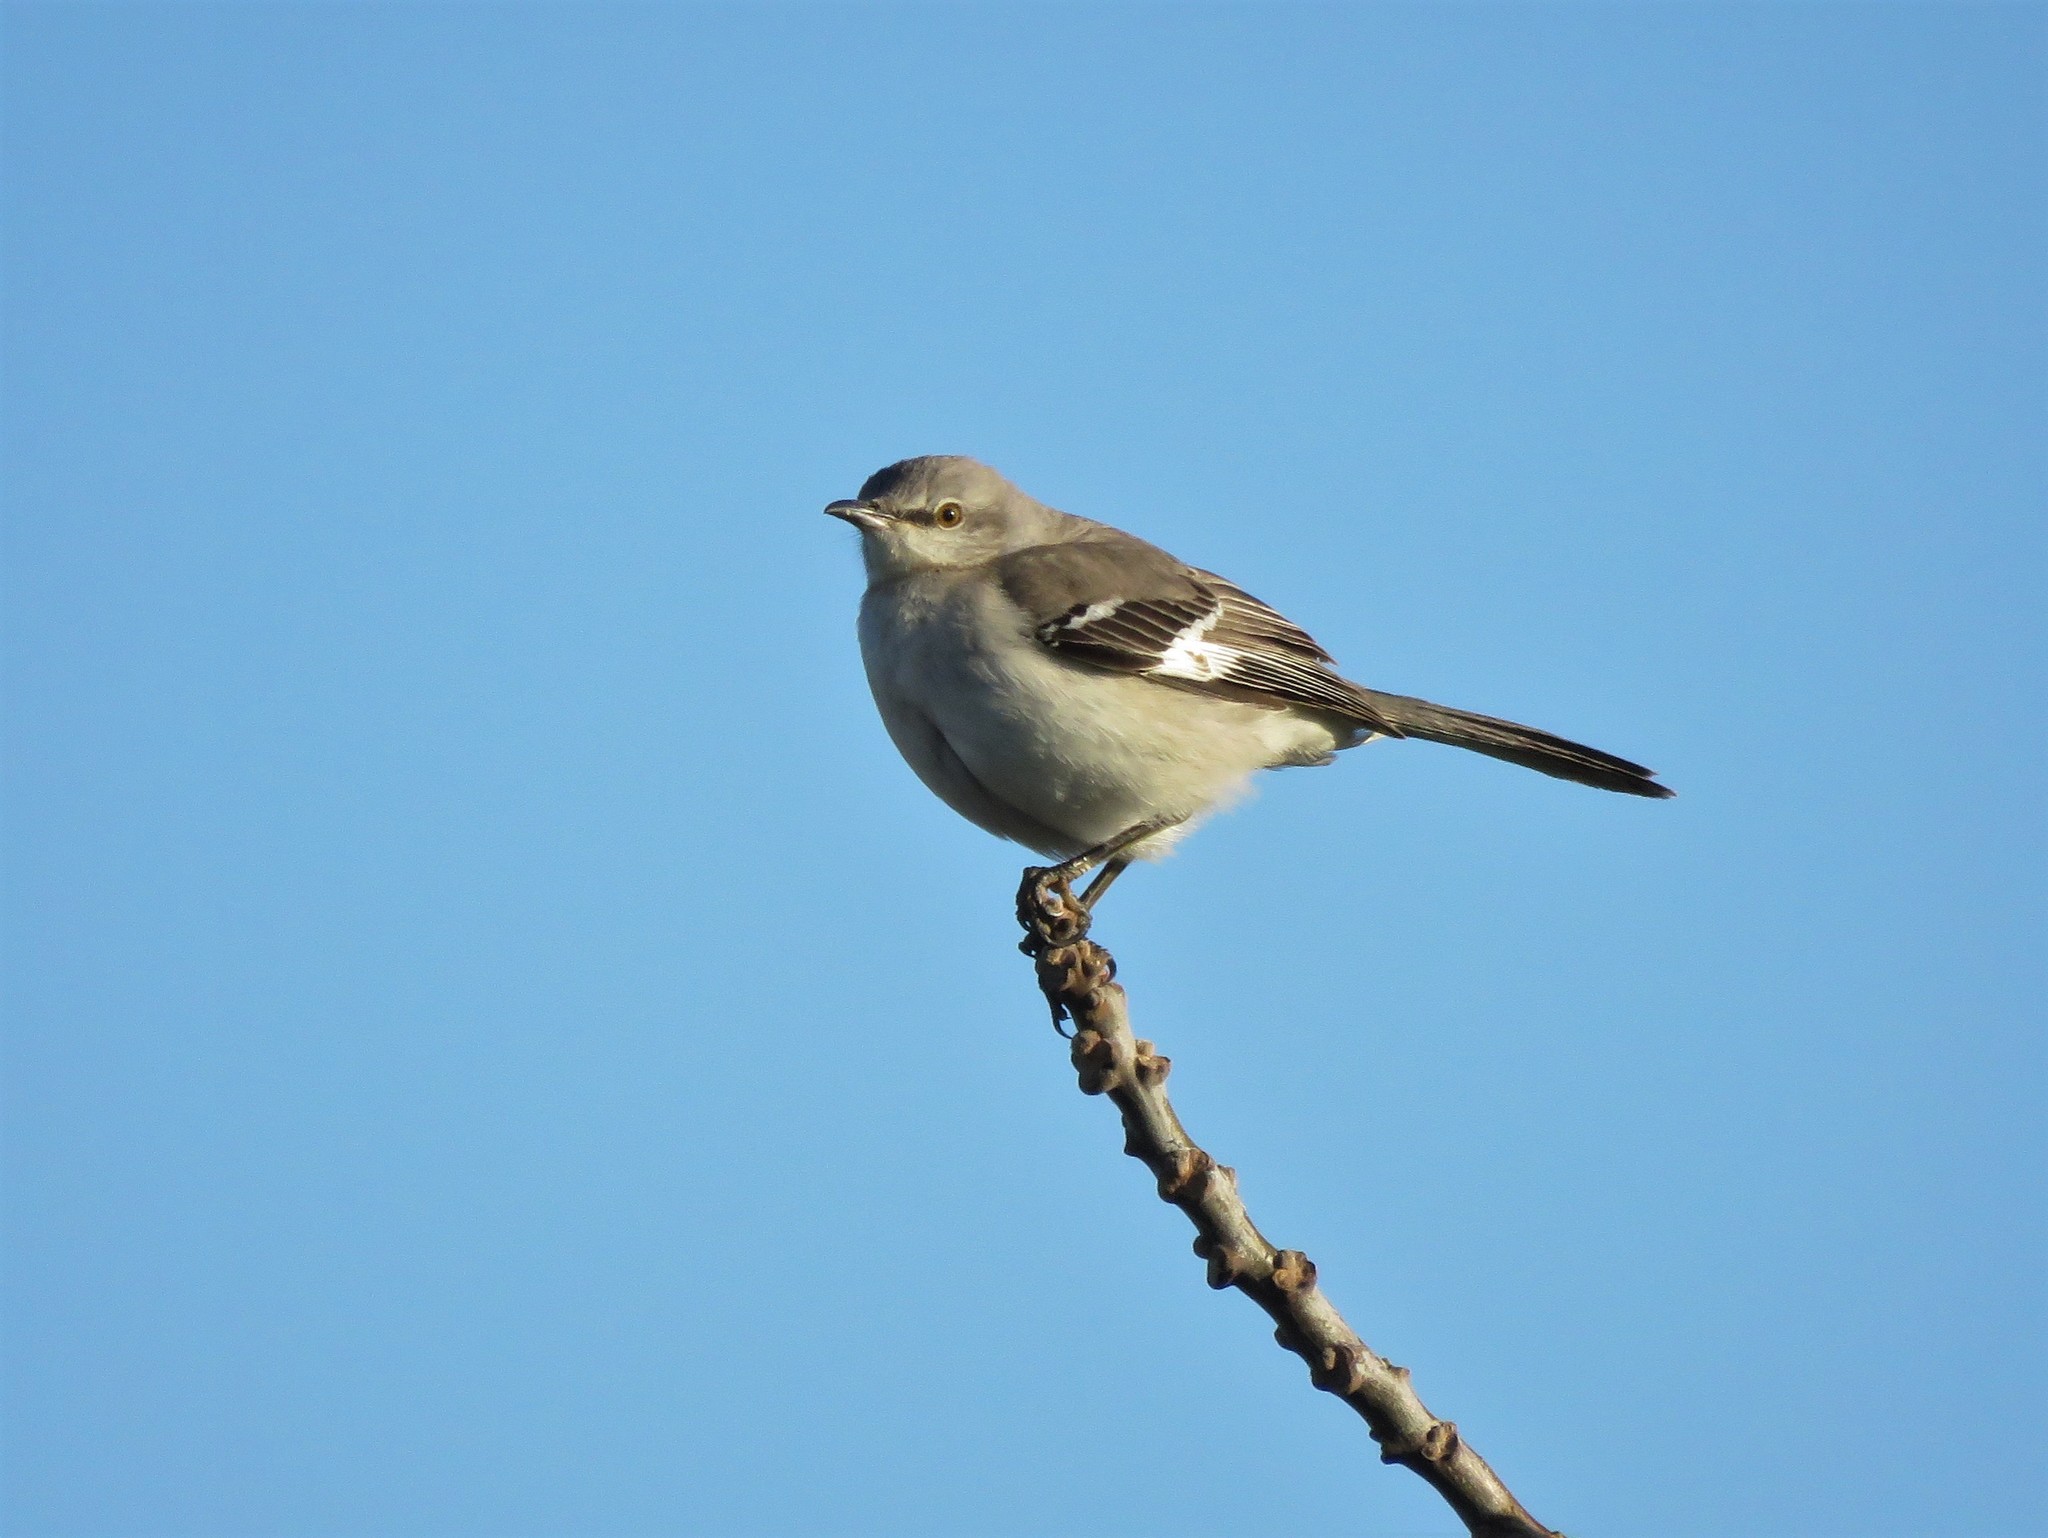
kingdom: Animalia
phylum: Chordata
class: Aves
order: Passeriformes
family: Mimidae
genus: Mimus
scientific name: Mimus polyglottos
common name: Northern mockingbird
